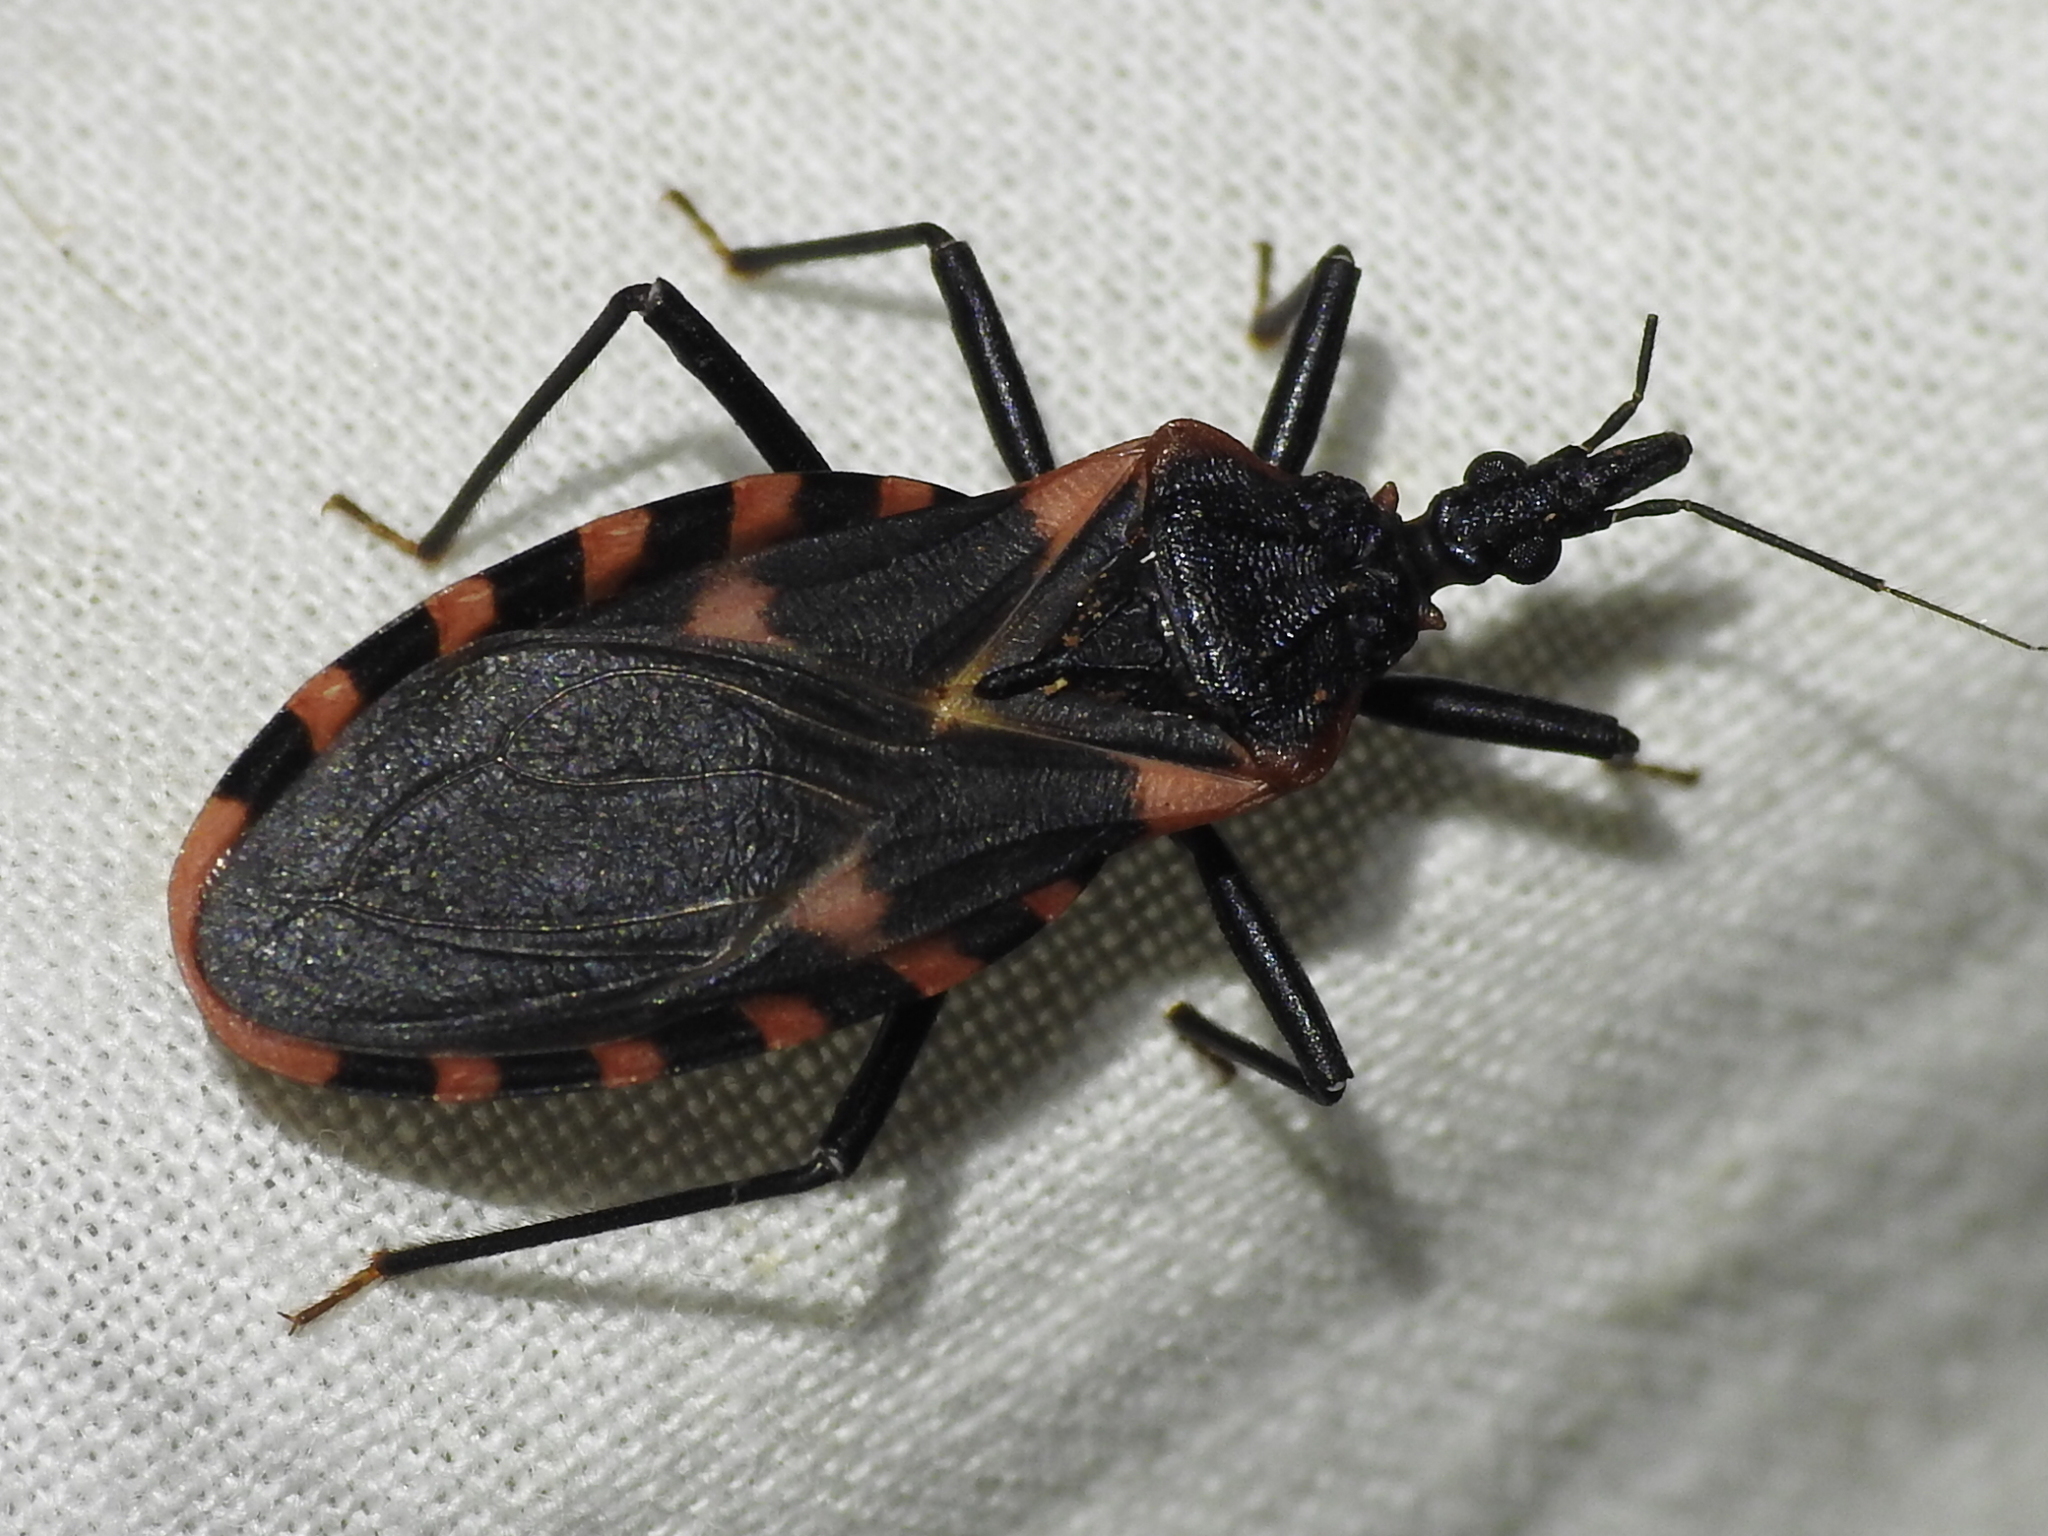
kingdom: Animalia
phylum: Arthropoda
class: Insecta
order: Hemiptera
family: Reduviidae
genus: Triatoma
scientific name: Triatoma sanguisuga
